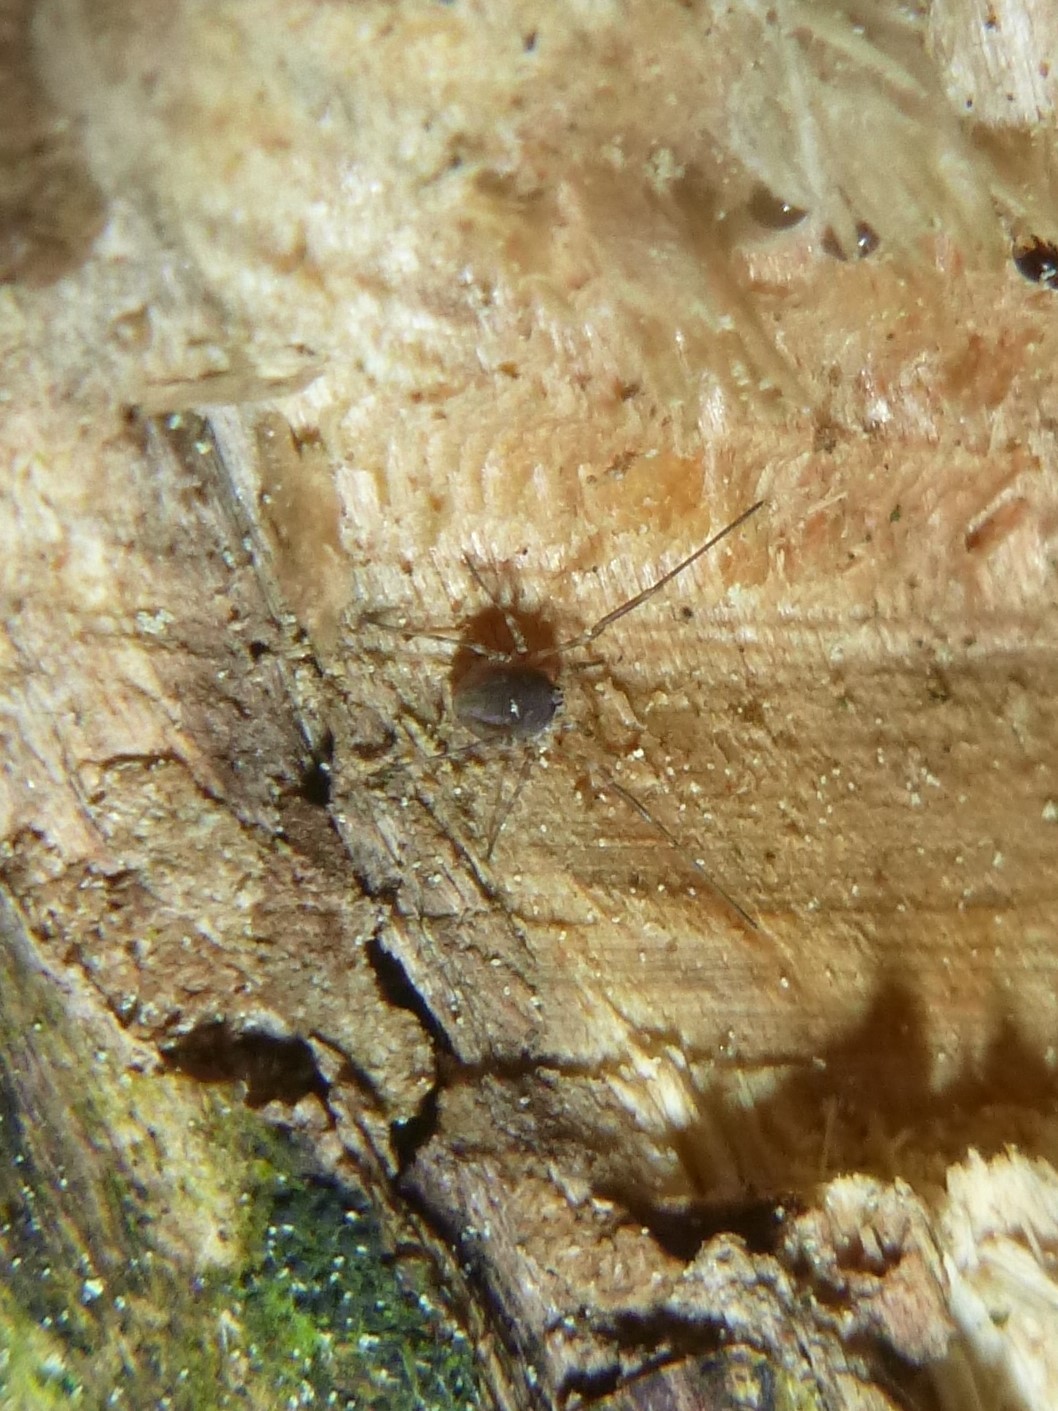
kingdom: Animalia
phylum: Arthropoda
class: Arachnida
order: Opiliones
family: Phalangiidae
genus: Lacinius
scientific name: Lacinius dentiger
